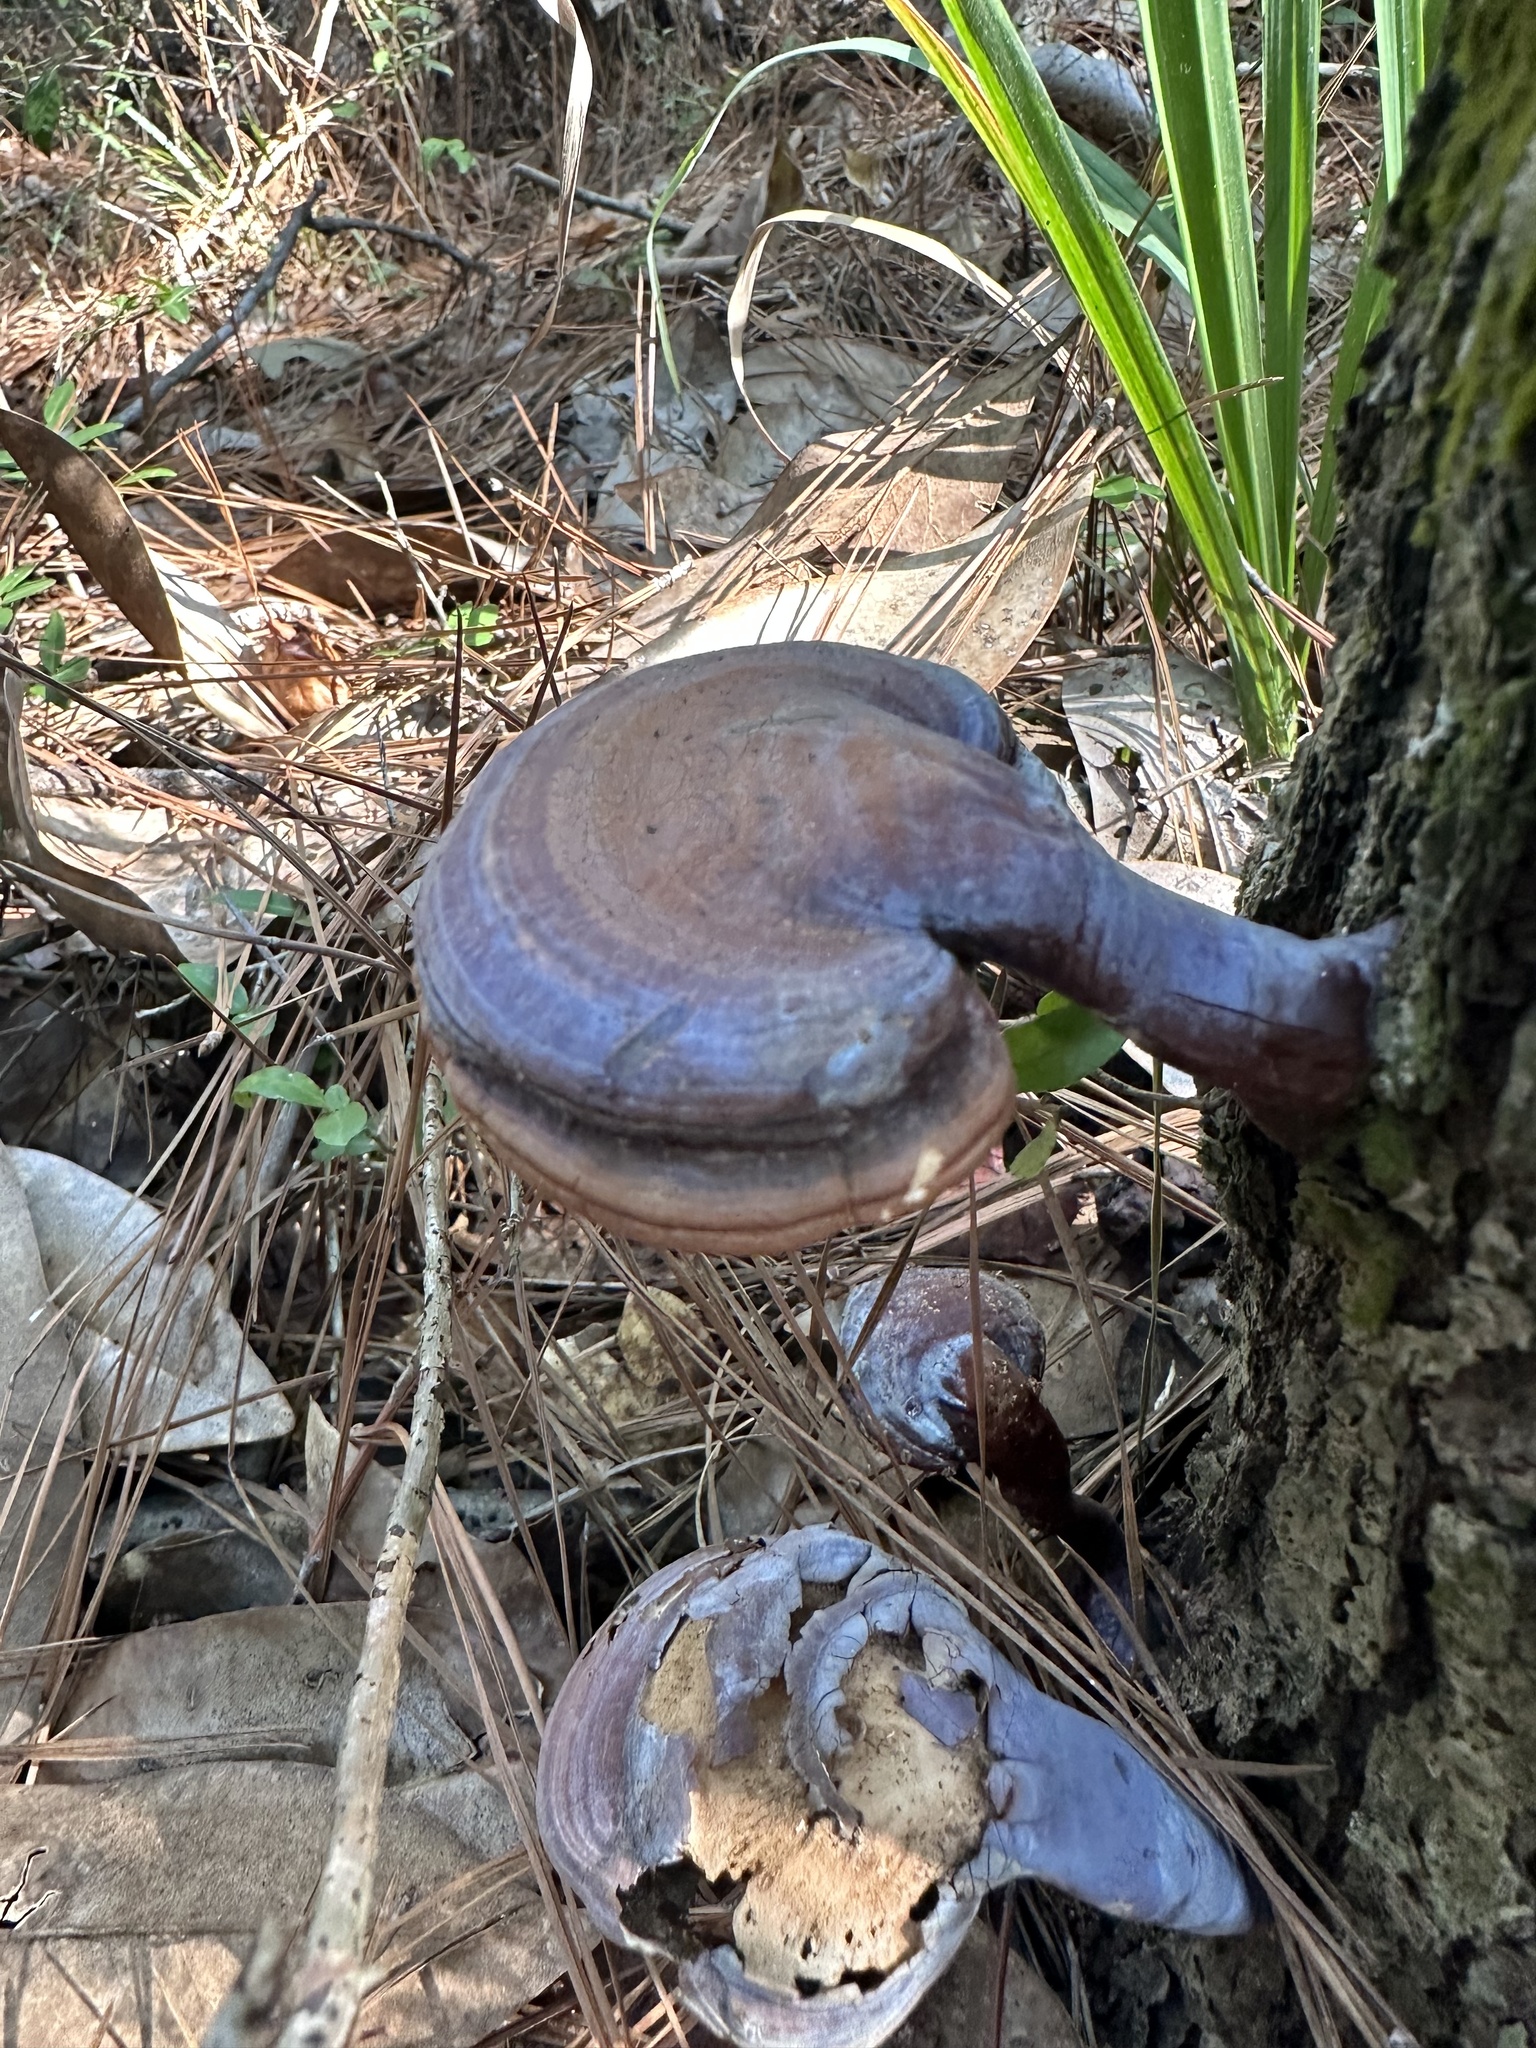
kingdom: Fungi
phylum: Basidiomycota
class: Agaricomycetes
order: Polyporales
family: Polyporaceae
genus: Ganoderma
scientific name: Ganoderma curtisii
